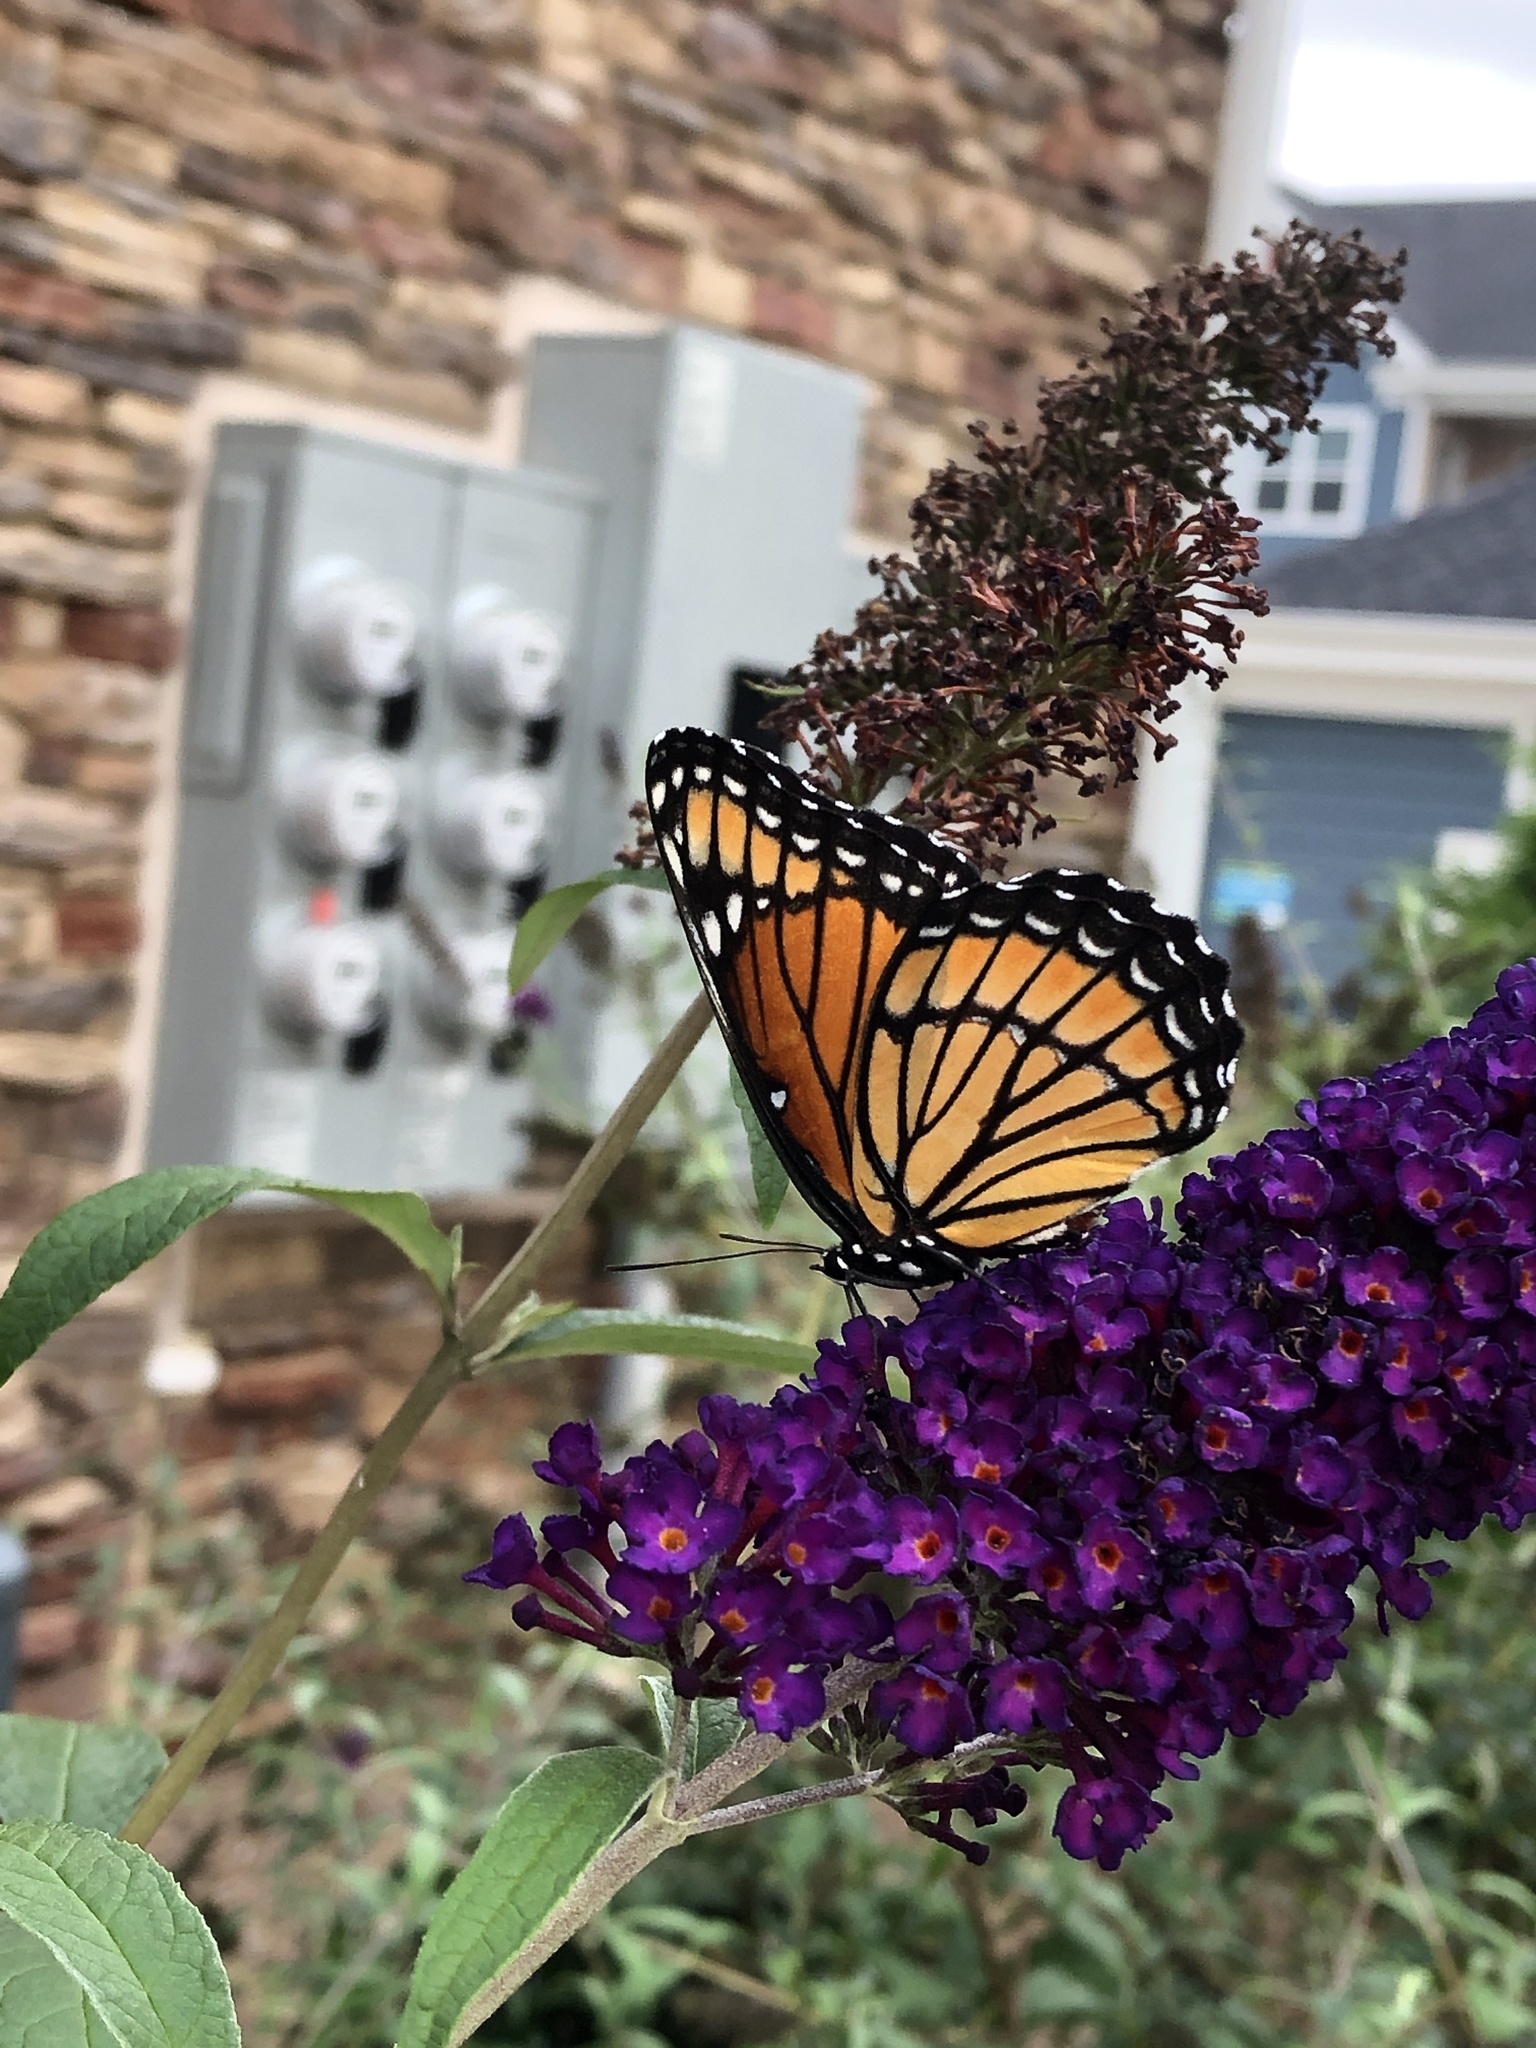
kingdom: Animalia
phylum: Arthropoda
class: Insecta
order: Lepidoptera
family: Nymphalidae
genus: Limenitis
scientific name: Limenitis archippus
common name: Viceroy
